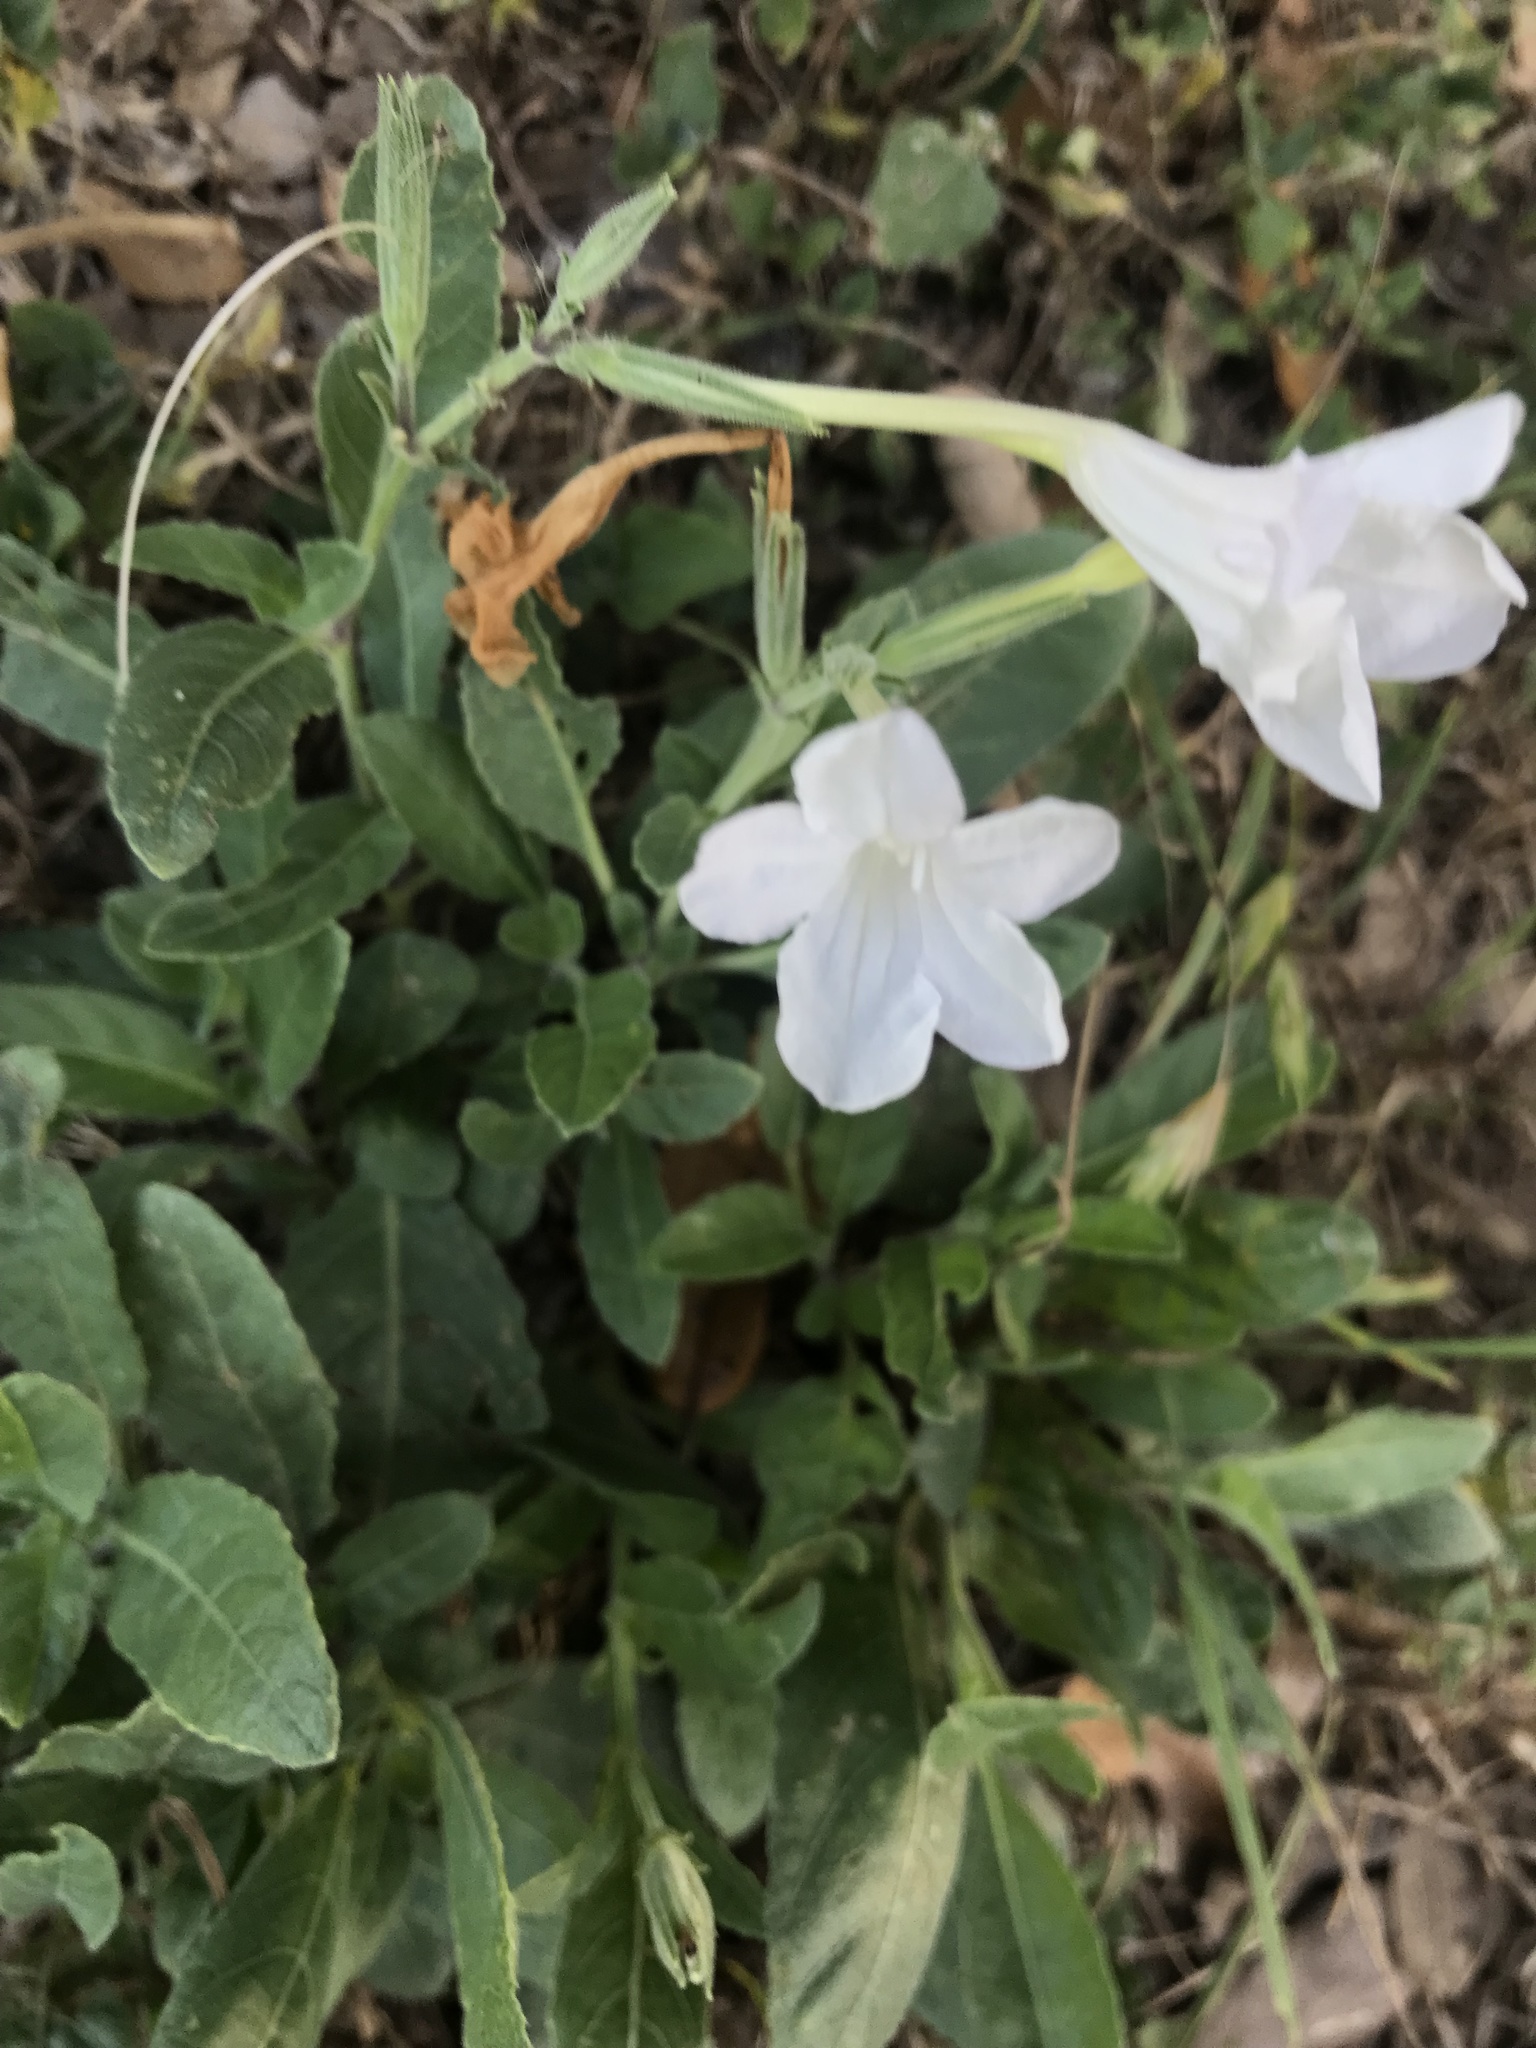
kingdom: Plantae
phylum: Tracheophyta
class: Magnoliopsida
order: Lamiales
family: Acanthaceae
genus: Ruellia
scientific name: Ruellia metziae
